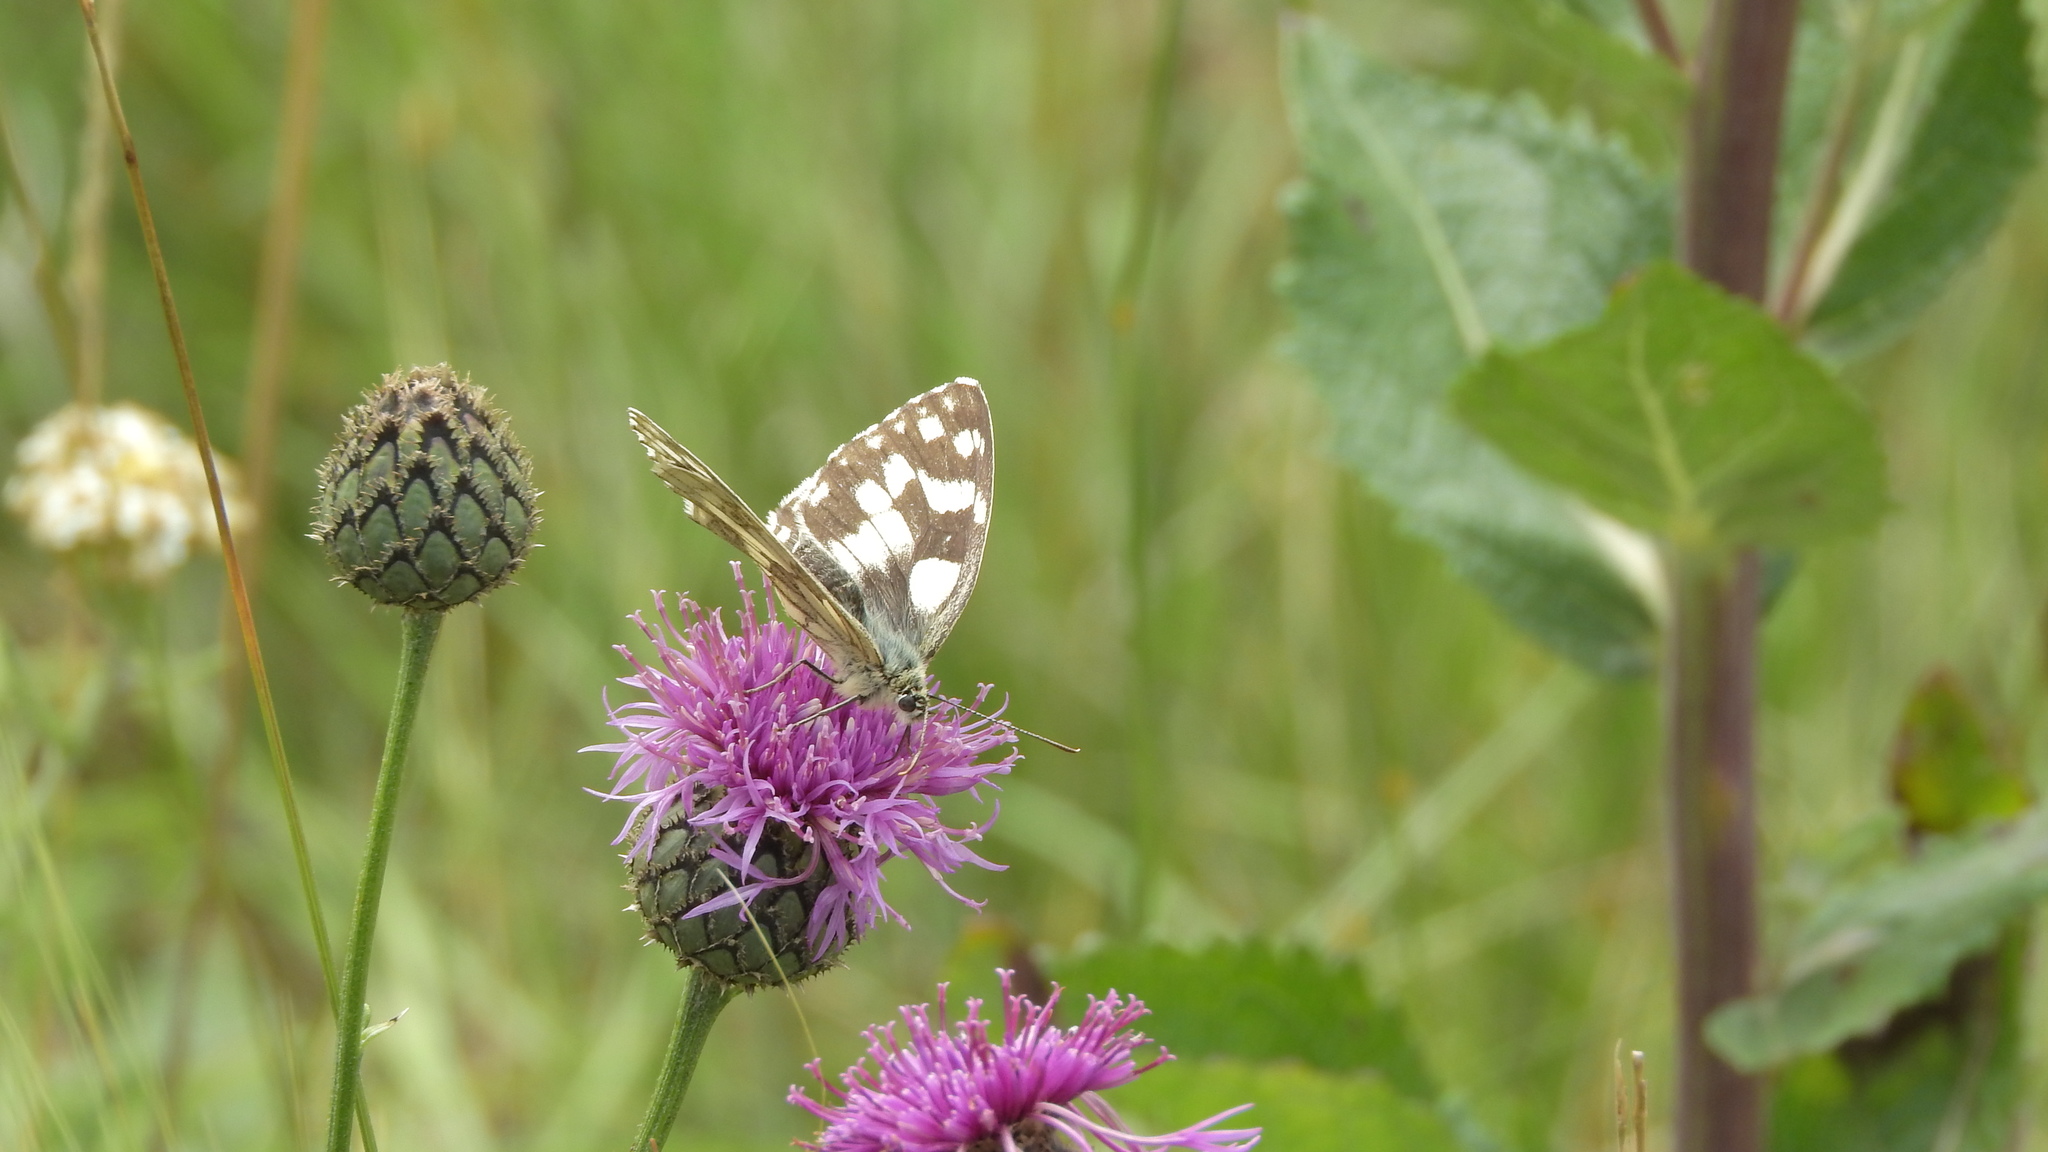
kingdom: Animalia
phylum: Arthropoda
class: Insecta
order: Lepidoptera
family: Nymphalidae
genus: Melanargia
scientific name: Melanargia galathea
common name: Marbled white
